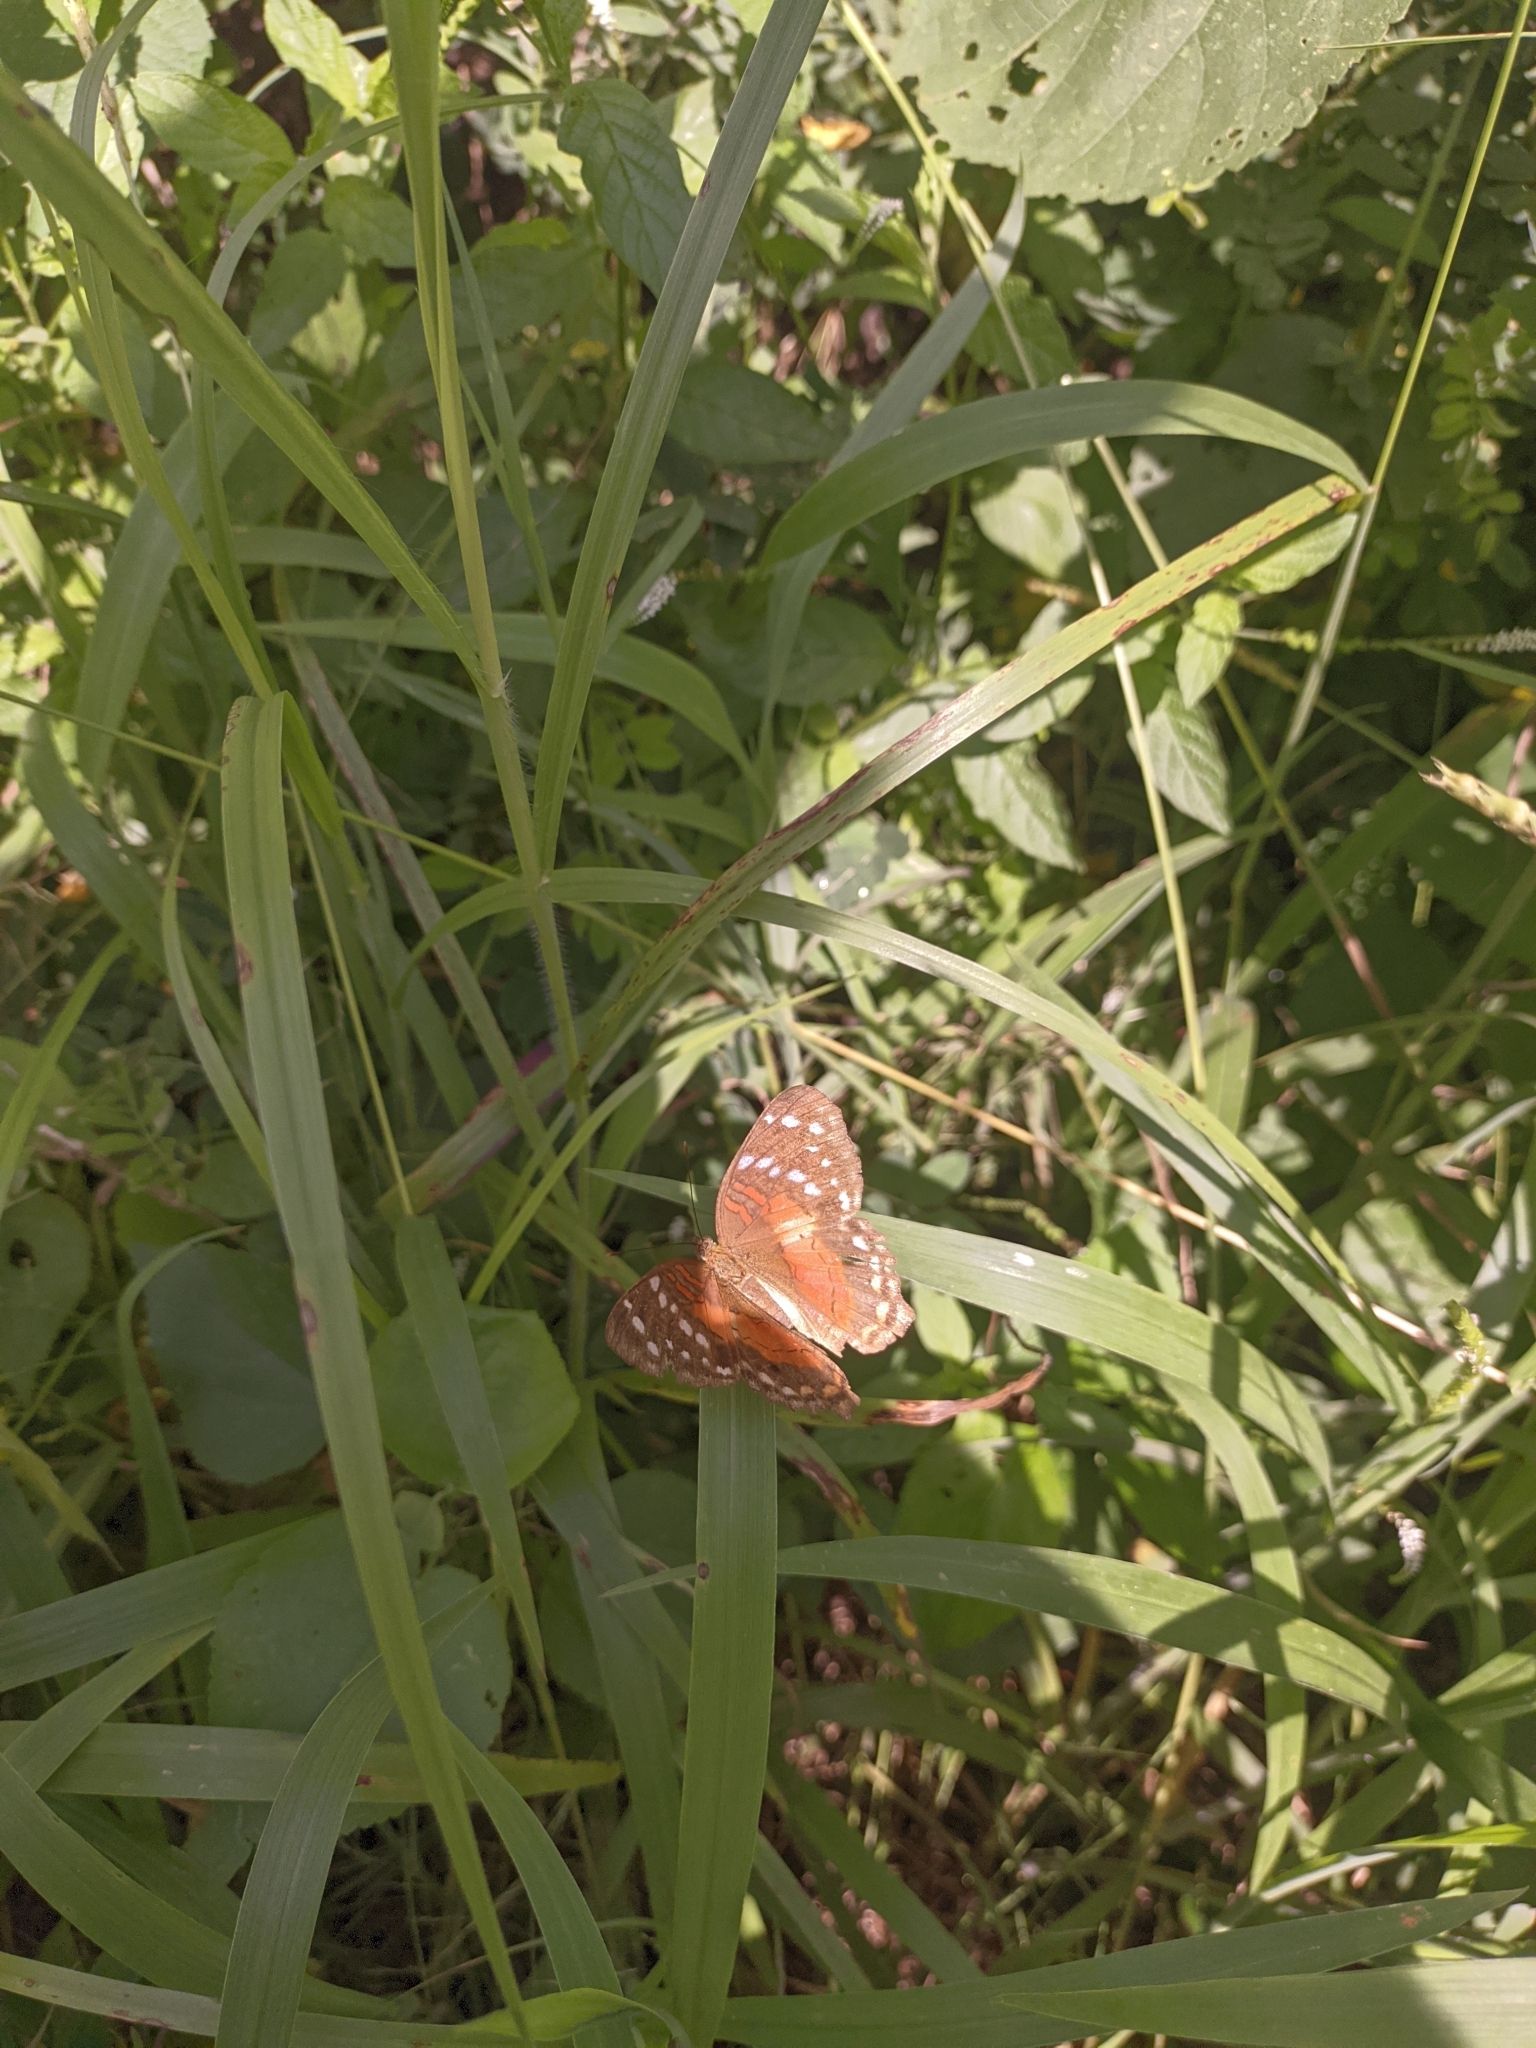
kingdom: Animalia
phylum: Arthropoda
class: Insecta
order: Lepidoptera
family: Nymphalidae
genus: Anartia
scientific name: Anartia amathea
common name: Red peacock
